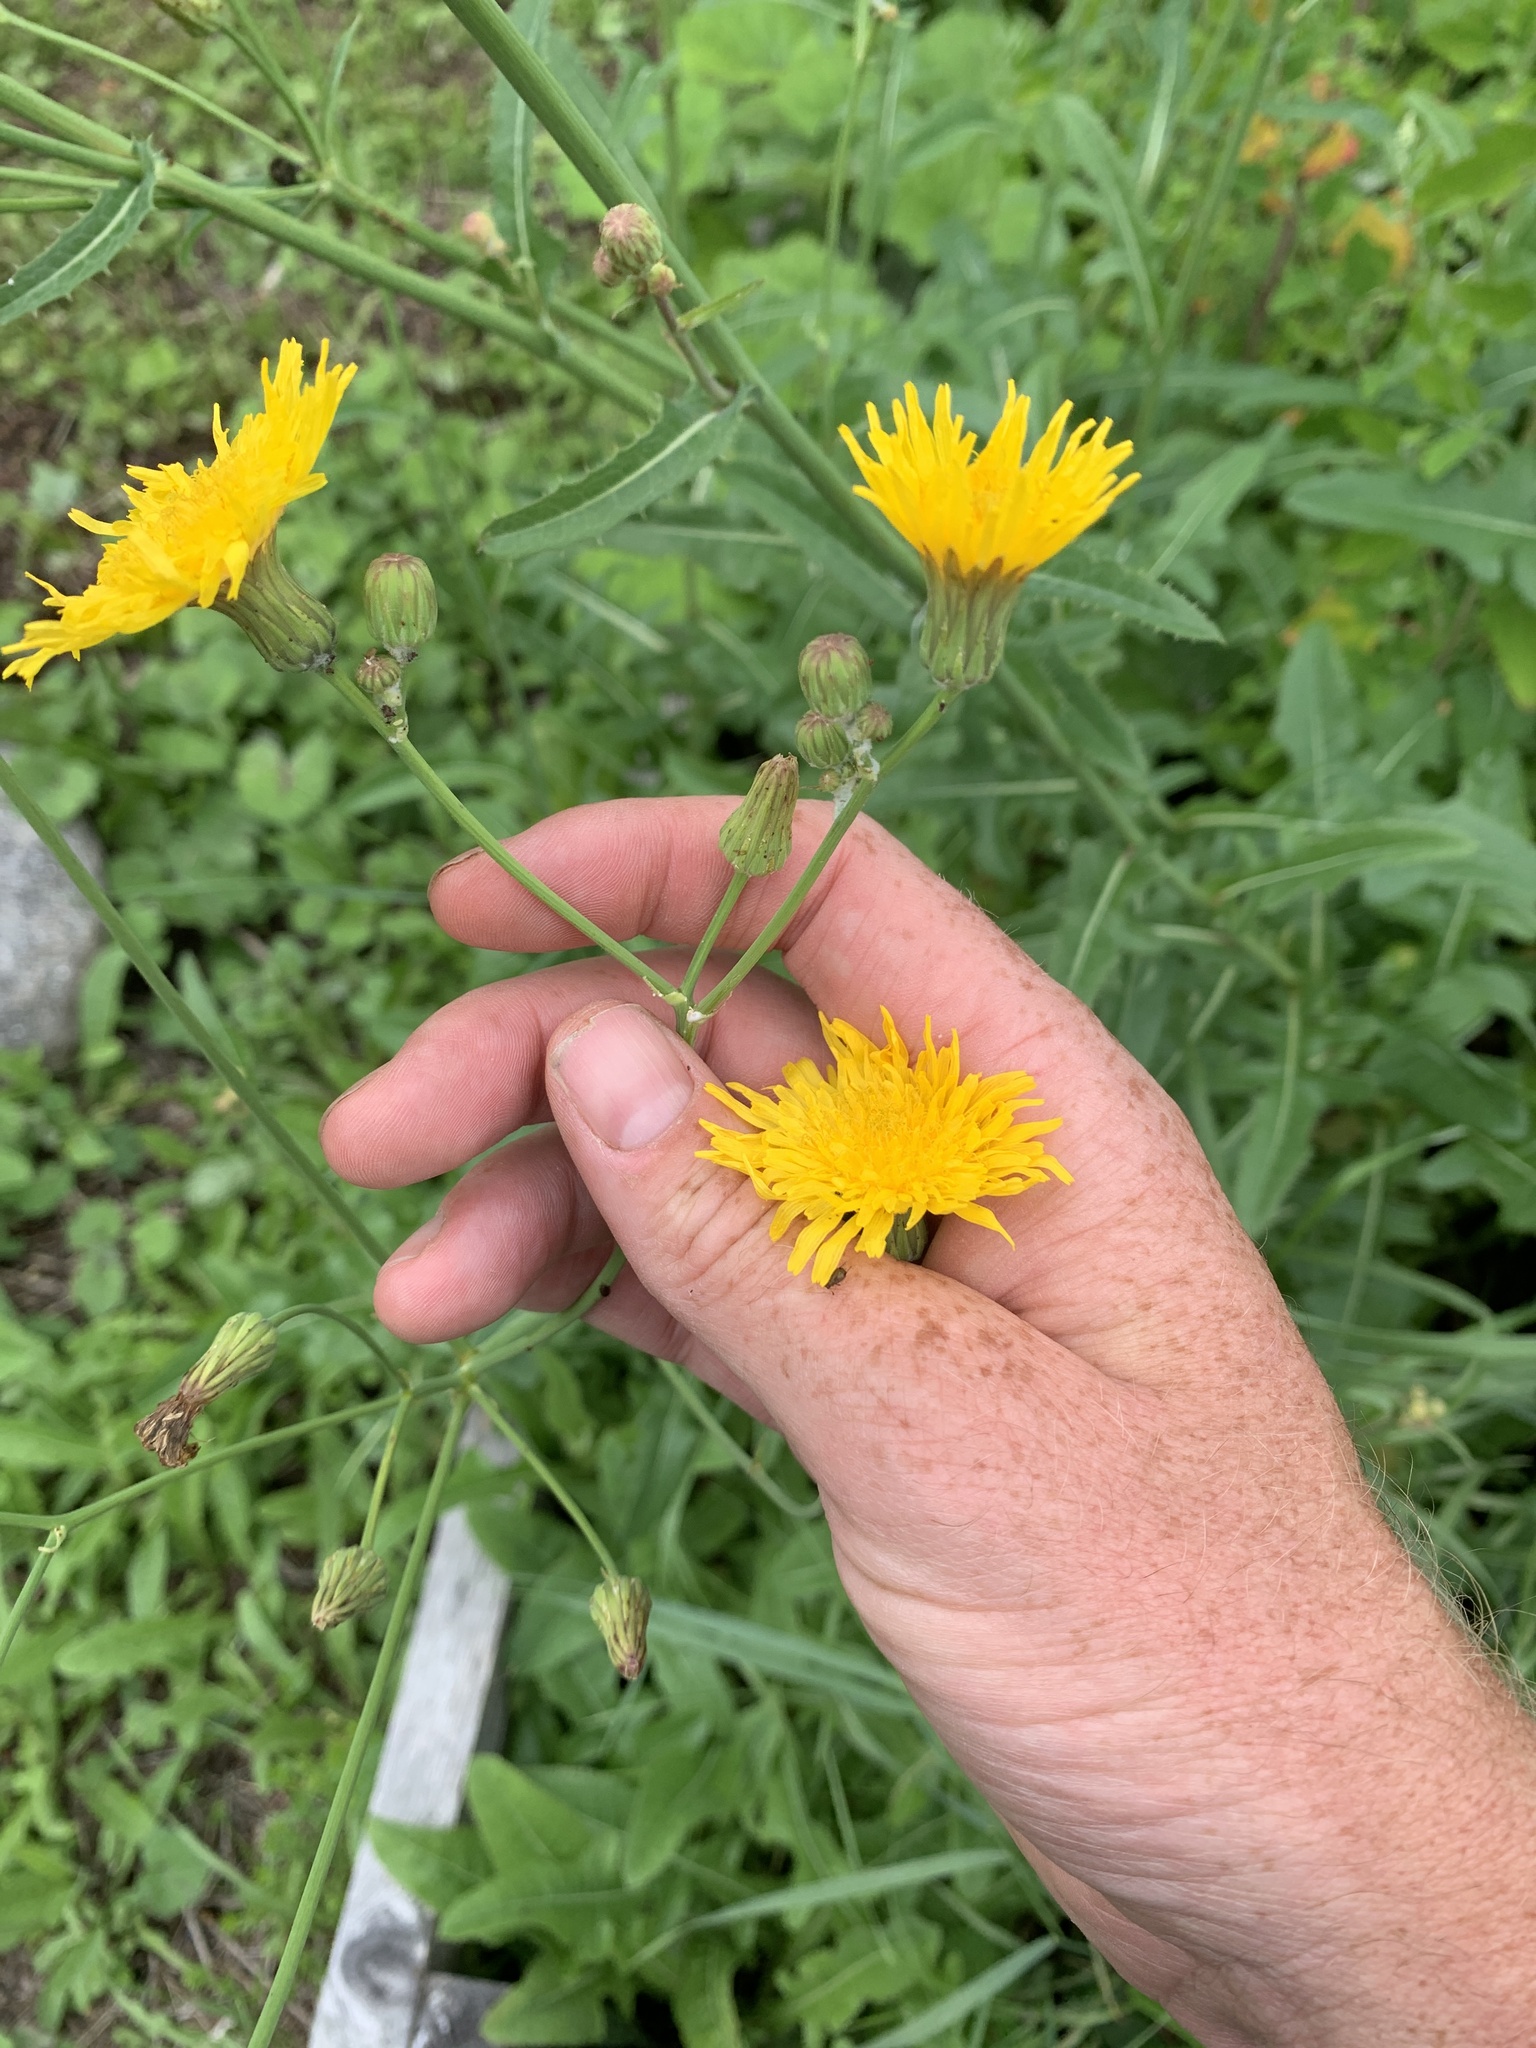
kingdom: Plantae
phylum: Tracheophyta
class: Magnoliopsida
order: Asterales
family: Asteraceae
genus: Sonchus
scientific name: Sonchus oleraceus
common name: Common sowthistle
